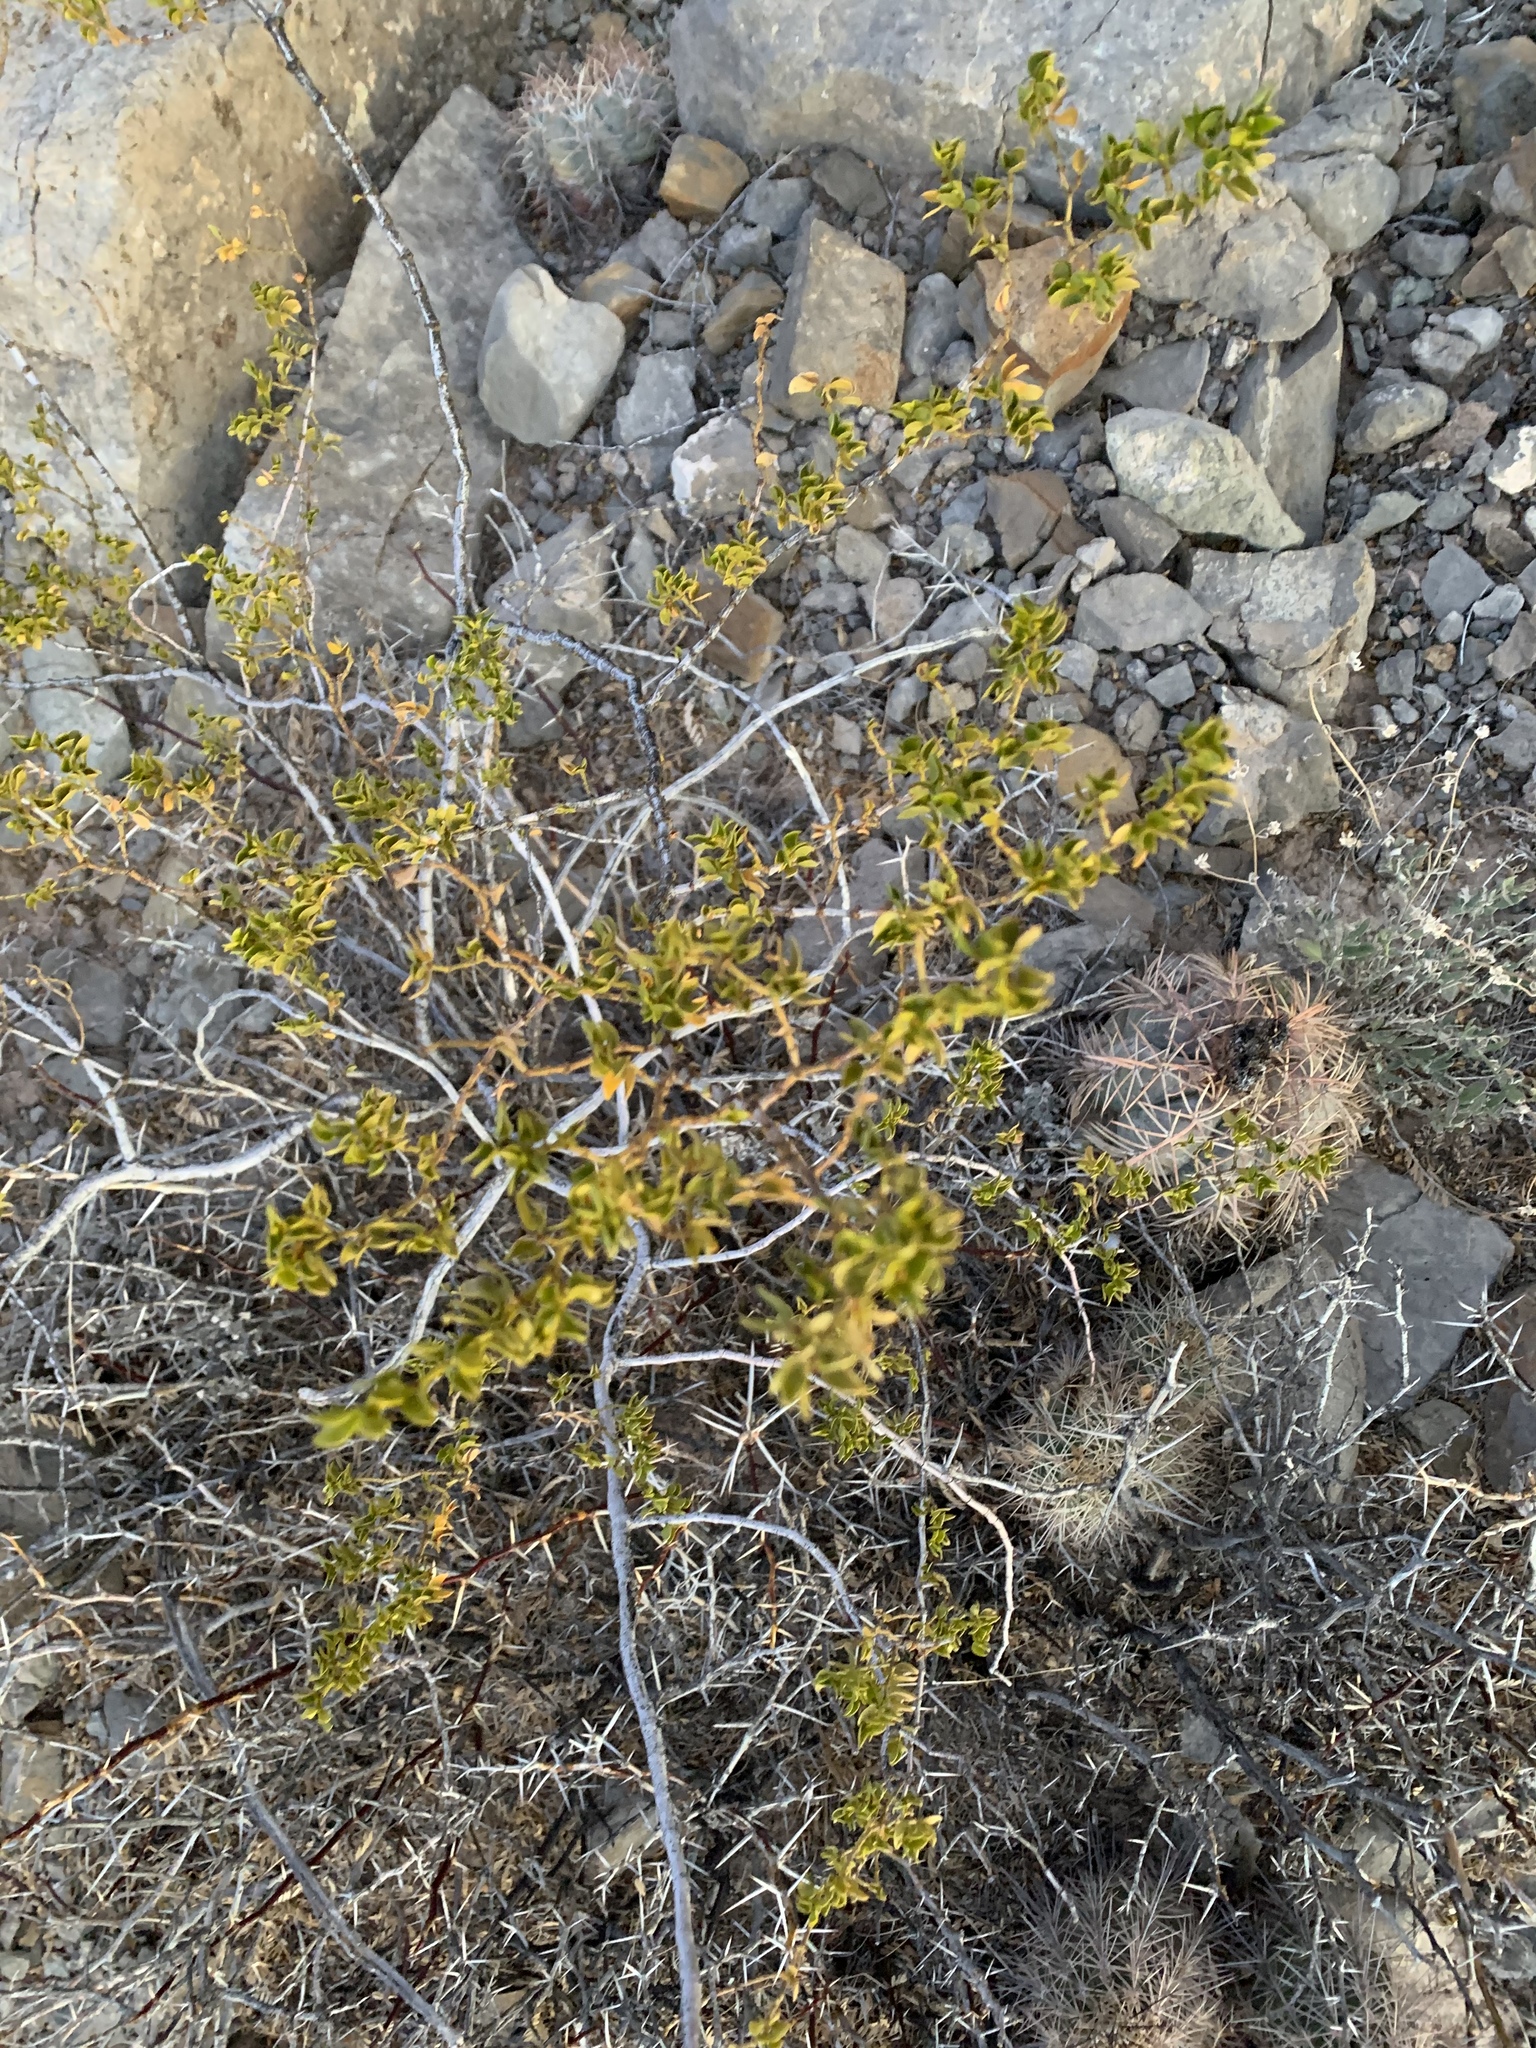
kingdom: Plantae
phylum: Tracheophyta
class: Magnoliopsida
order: Zygophyllales
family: Zygophyllaceae
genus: Larrea
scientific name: Larrea tridentata
